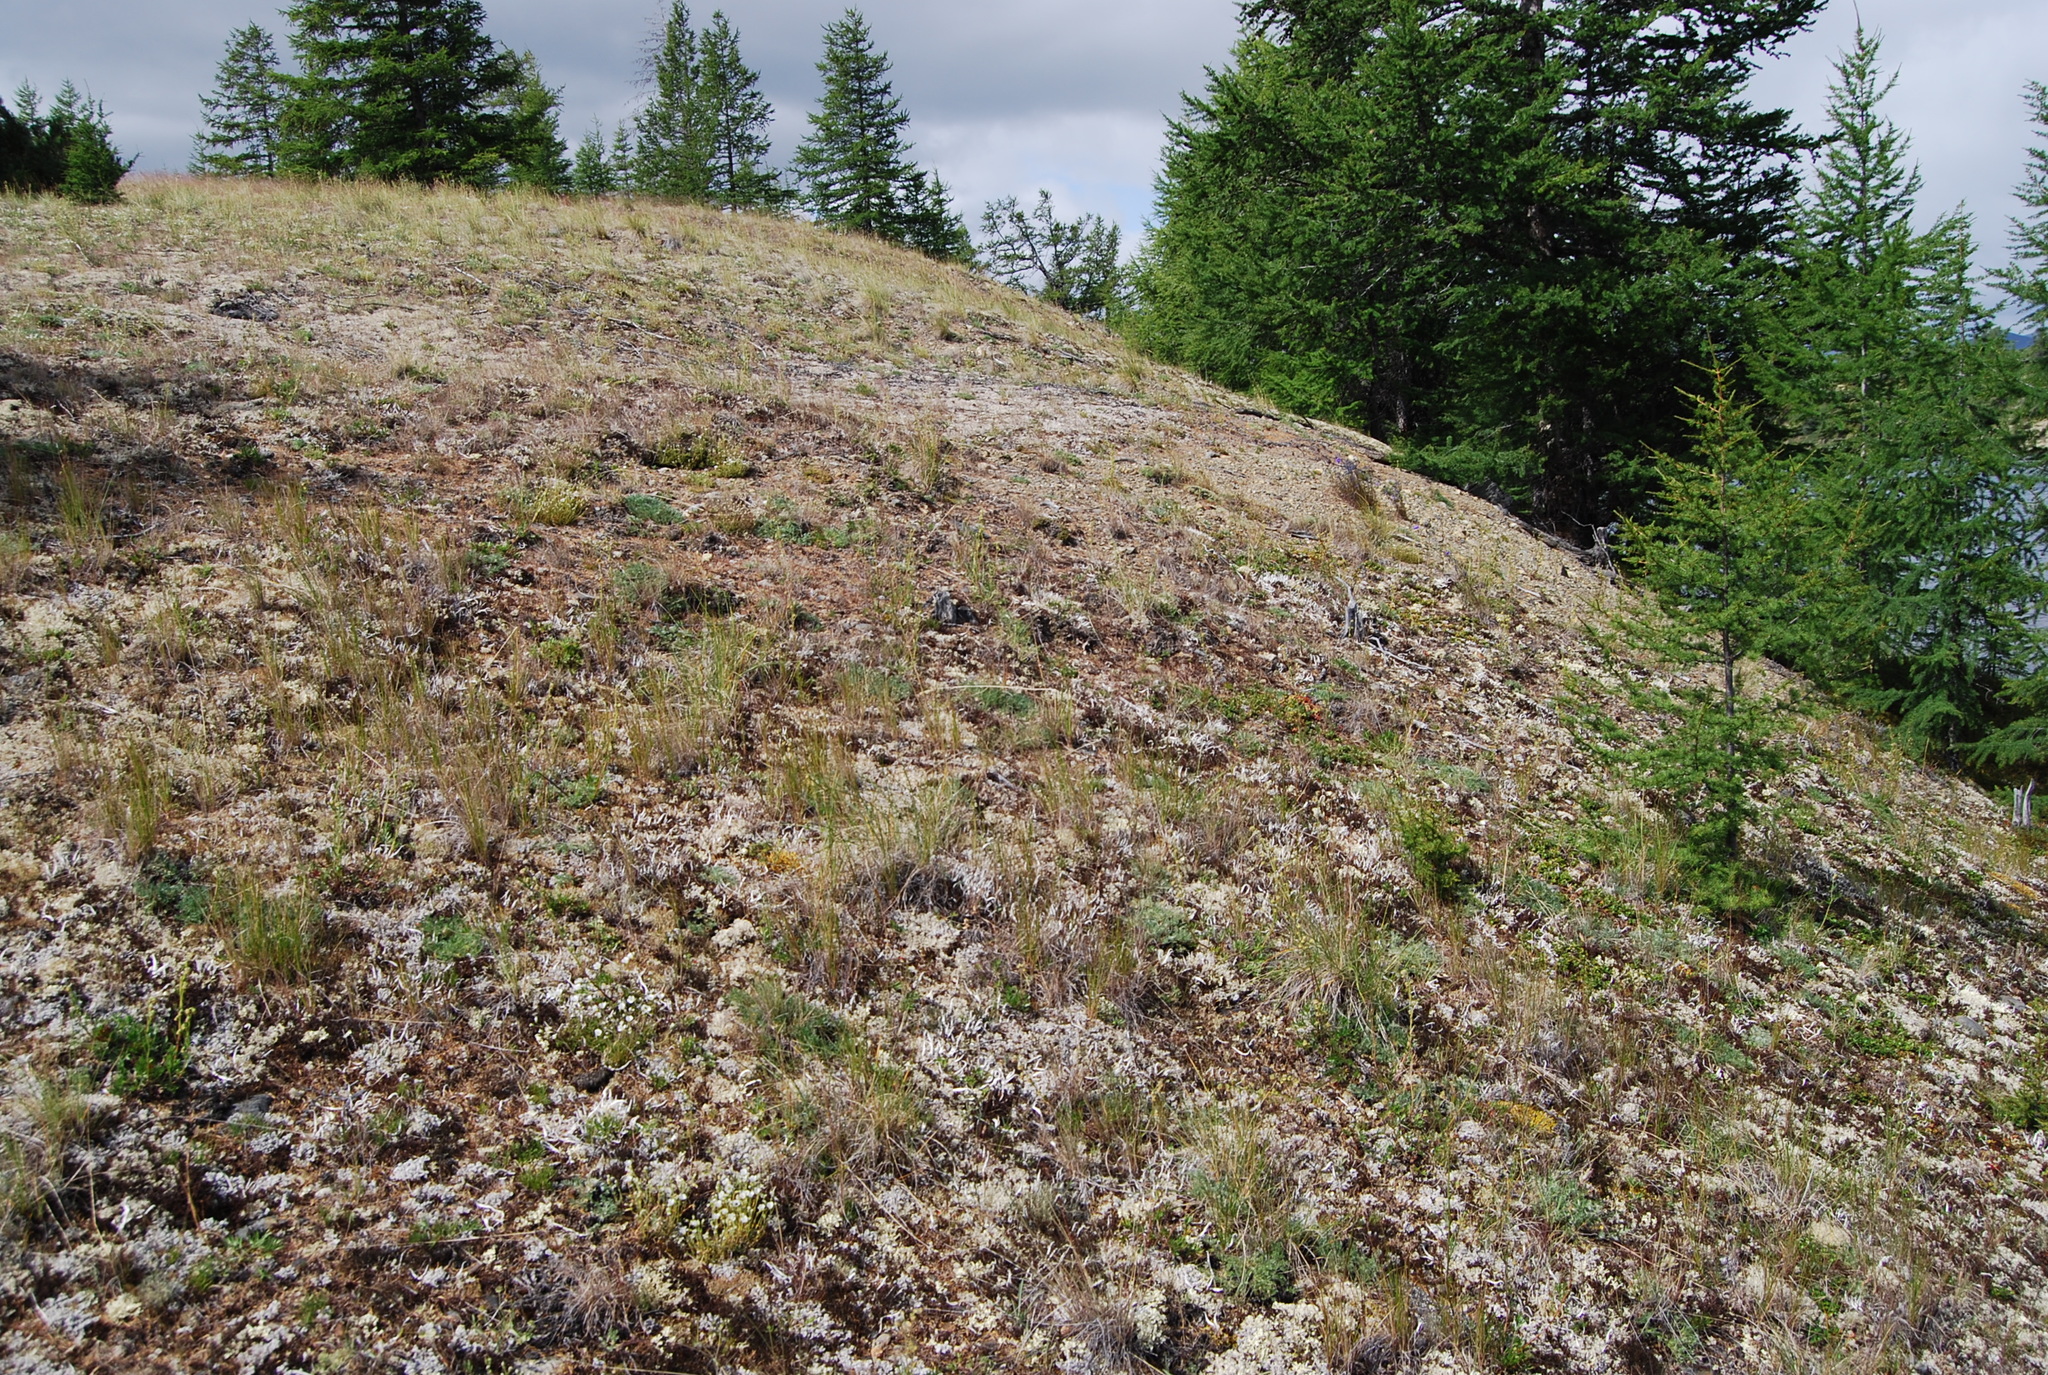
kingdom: Plantae
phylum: Tracheophyta
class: Magnoliopsida
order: Fabales
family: Fabaceae
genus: Oxytropis
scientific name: Oxytropis susumanica
